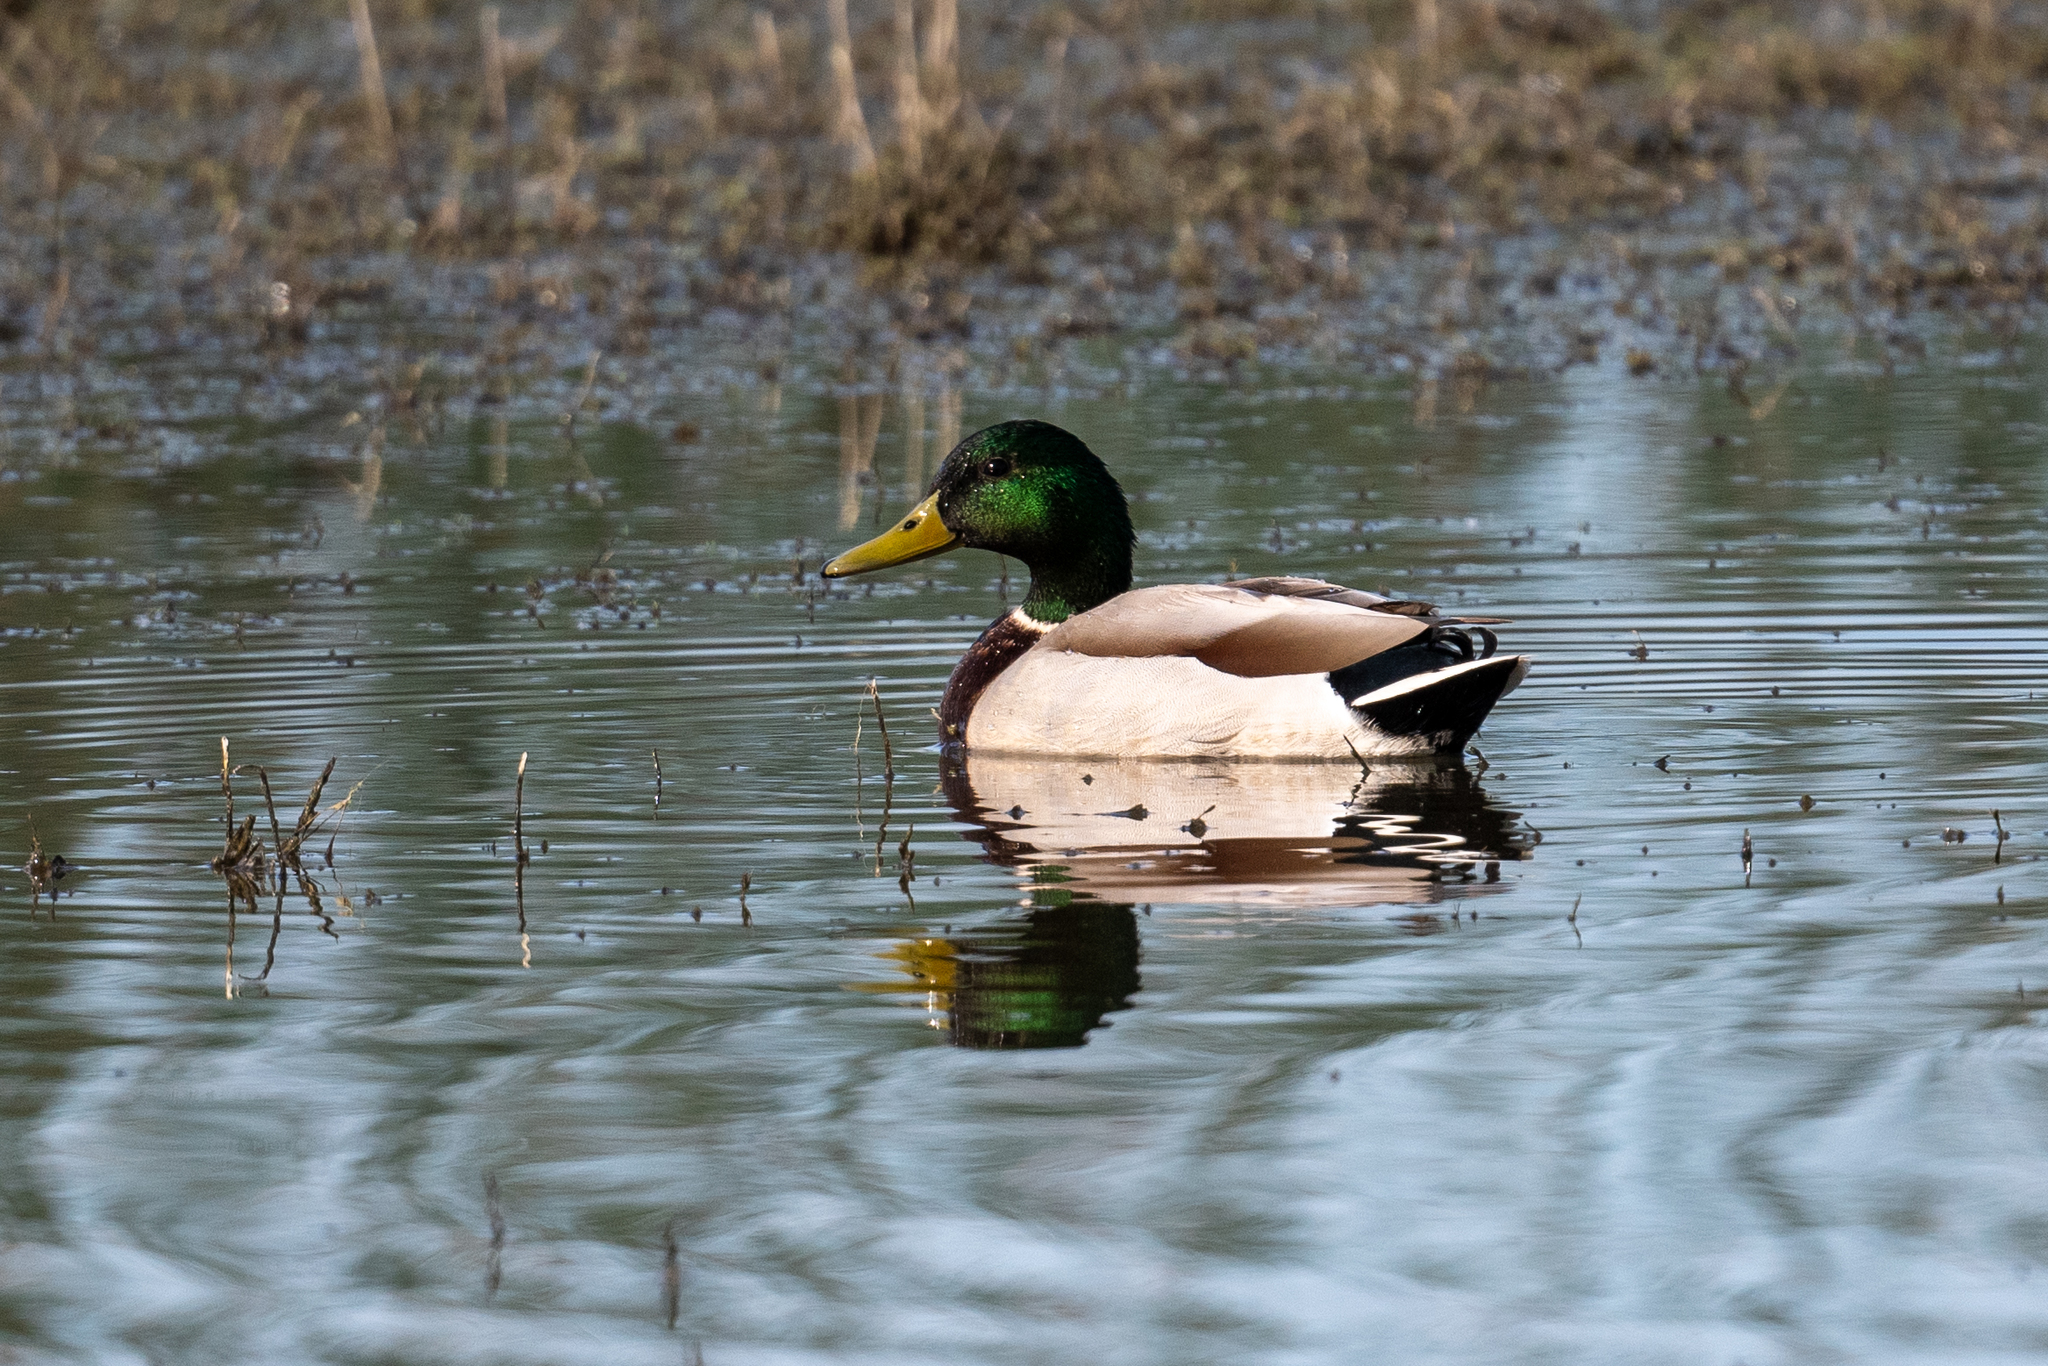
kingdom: Animalia
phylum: Chordata
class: Aves
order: Anseriformes
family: Anatidae
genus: Anas
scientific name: Anas platyrhynchos
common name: Mallard
